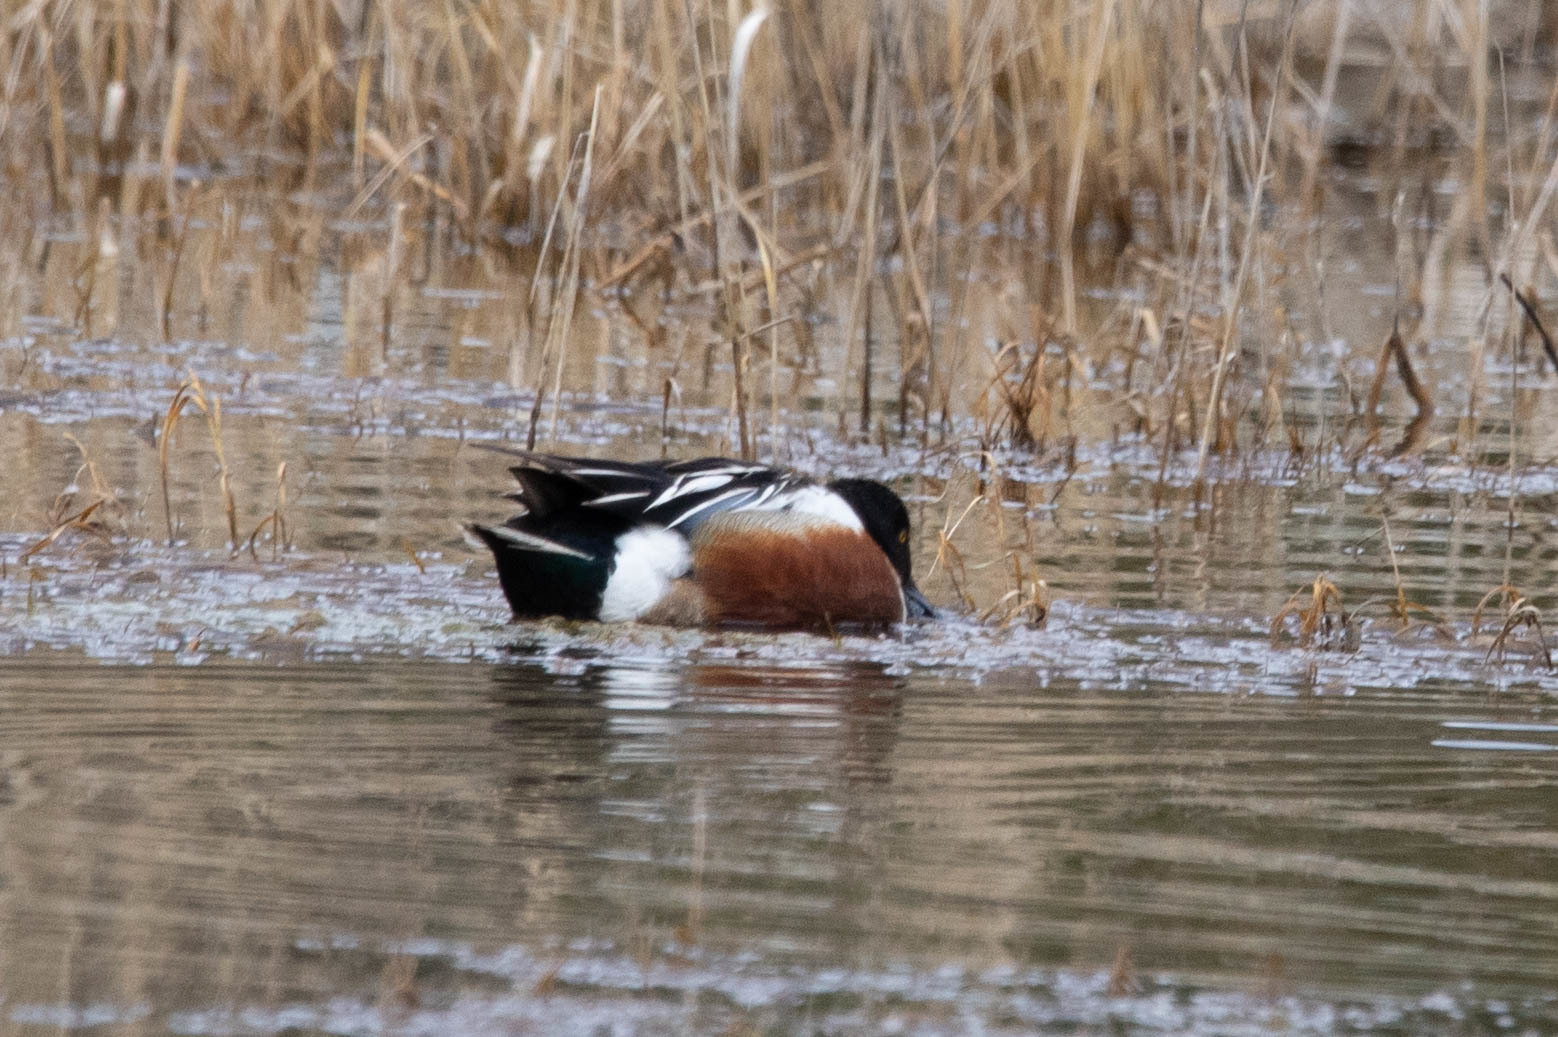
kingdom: Animalia
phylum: Chordata
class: Aves
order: Anseriformes
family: Anatidae
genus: Spatula
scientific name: Spatula clypeata
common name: Northern shoveler
